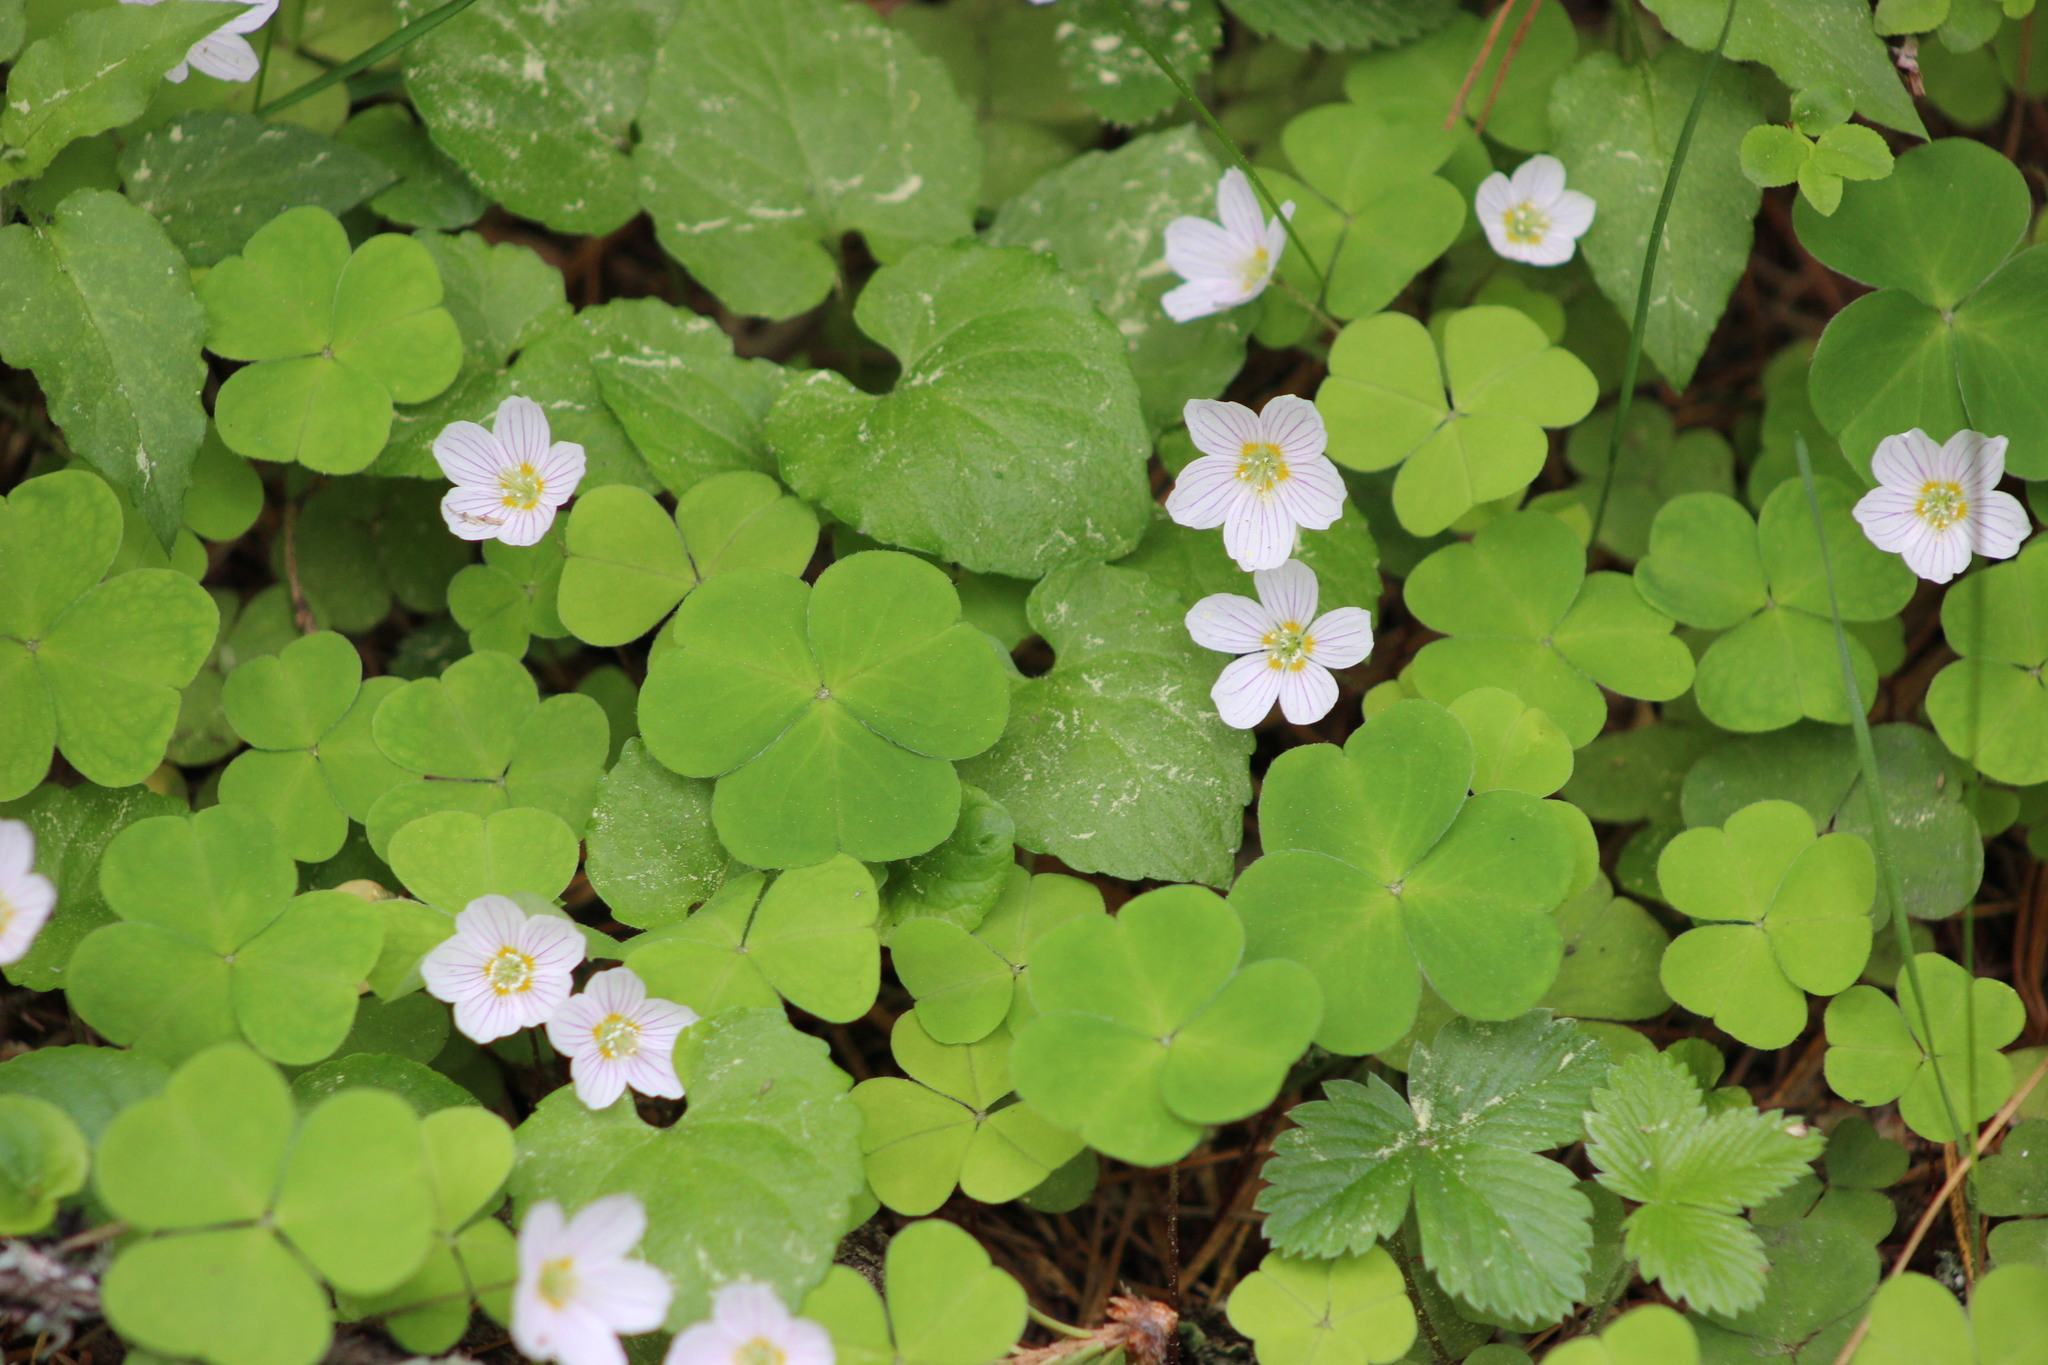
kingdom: Plantae
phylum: Tracheophyta
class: Magnoliopsida
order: Oxalidales
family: Oxalidaceae
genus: Oxalis
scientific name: Oxalis acetosella
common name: Wood-sorrel
